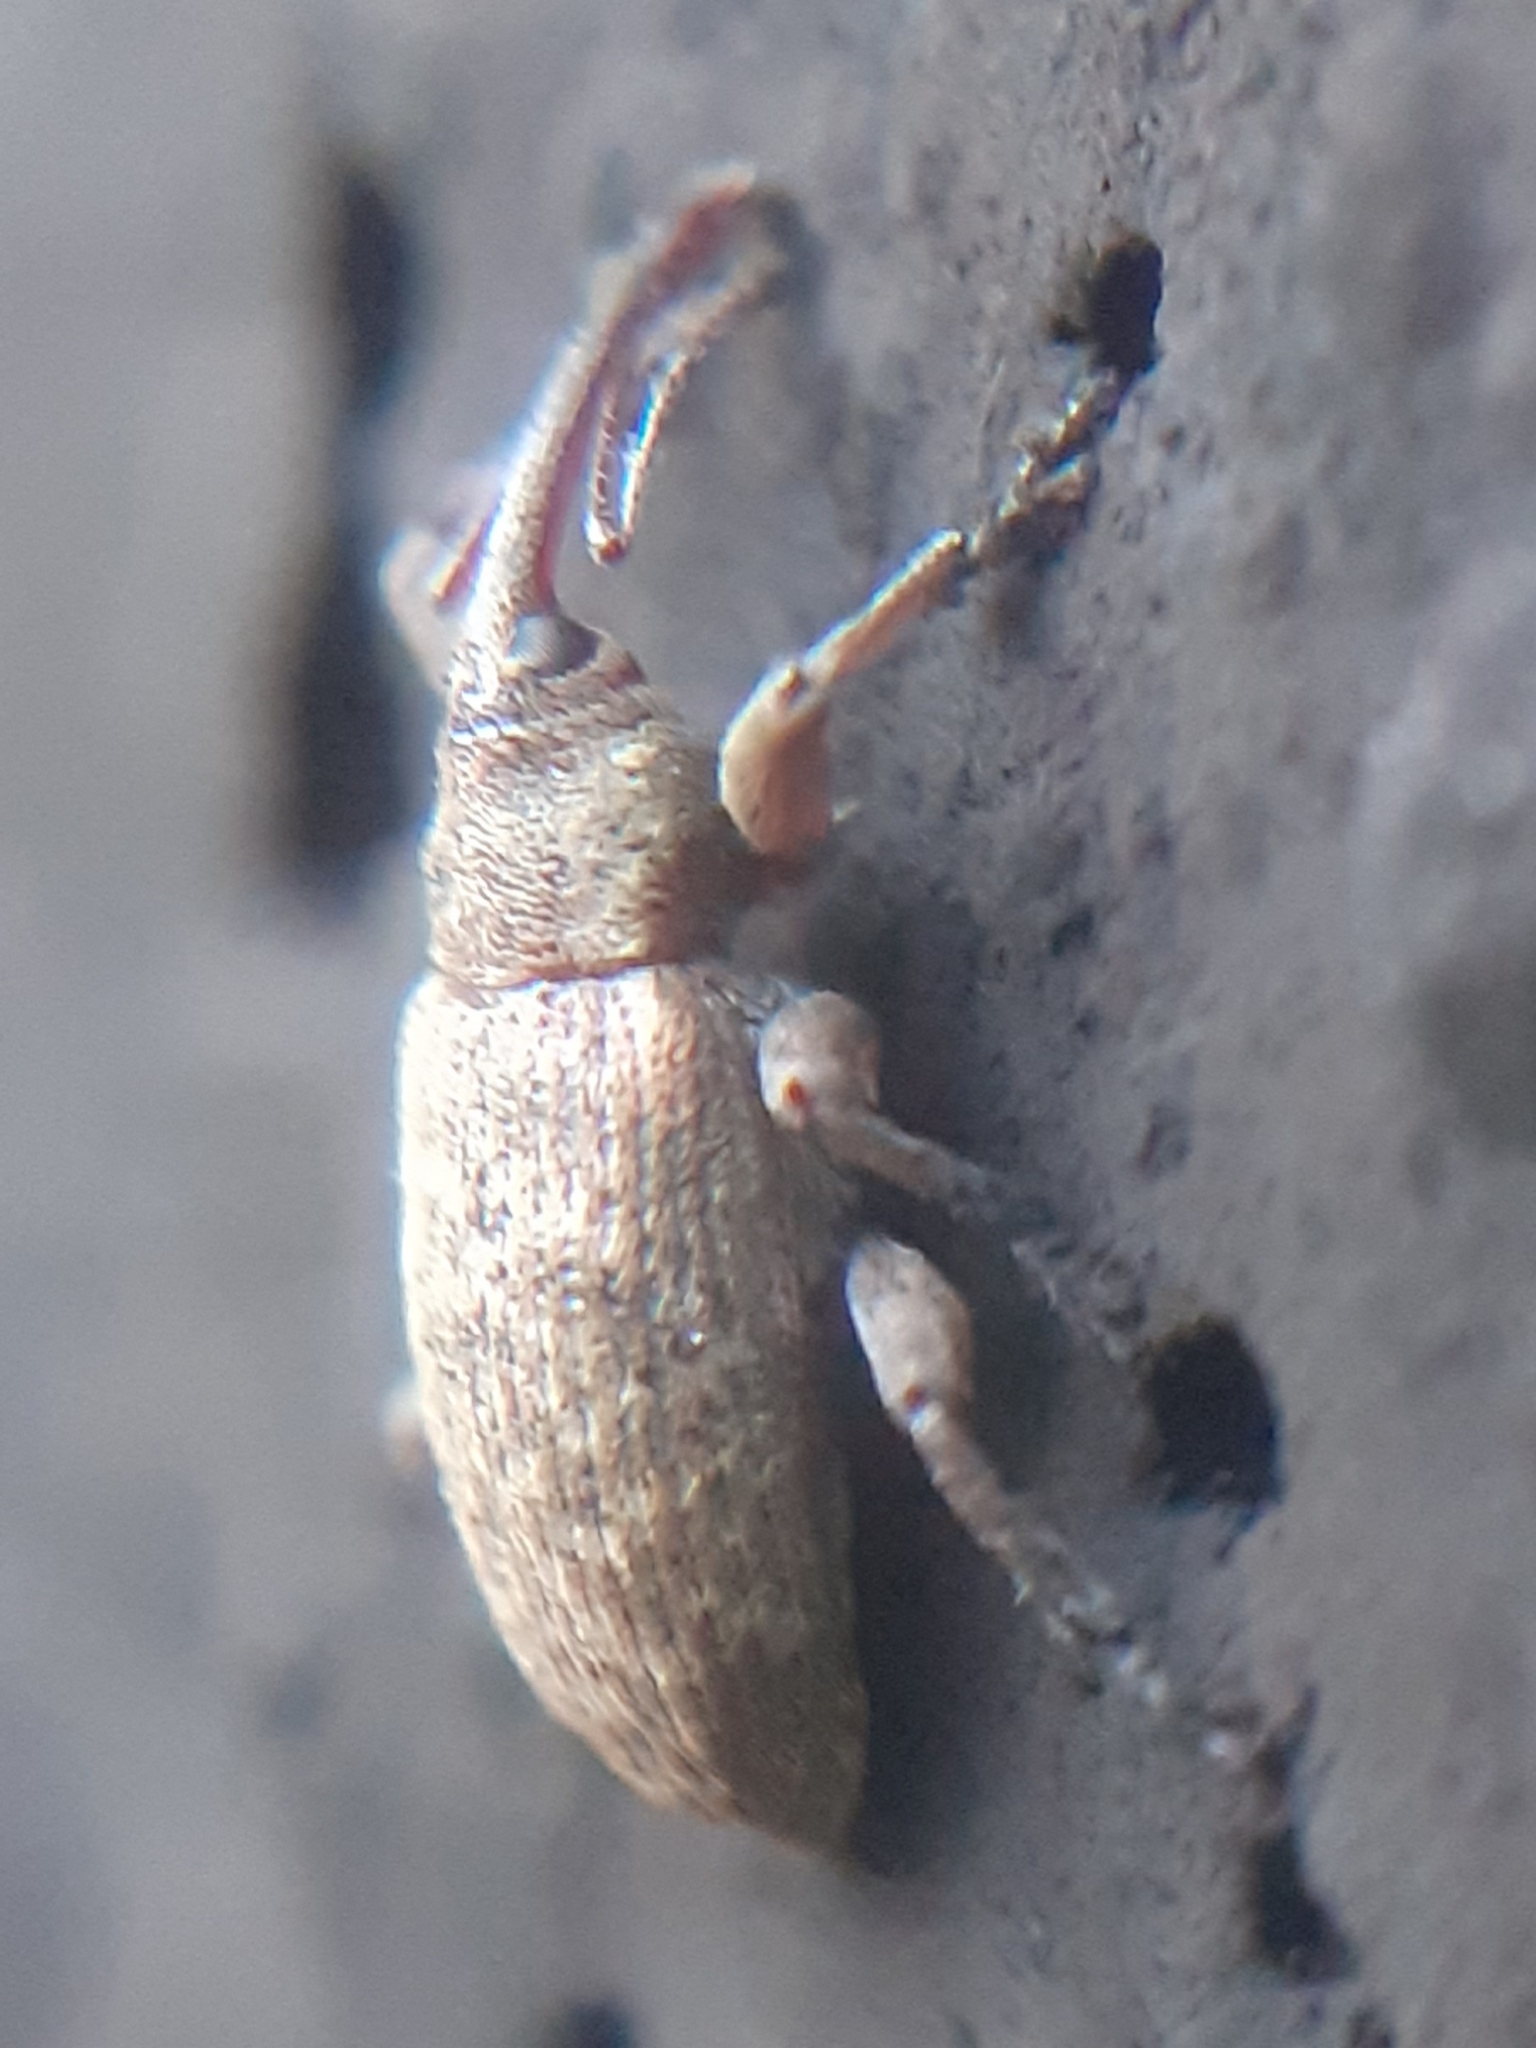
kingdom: Animalia
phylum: Arthropoda
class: Insecta
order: Coleoptera
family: Brachyceridae
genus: Erirhinus
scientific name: Erirhinus filirostris
